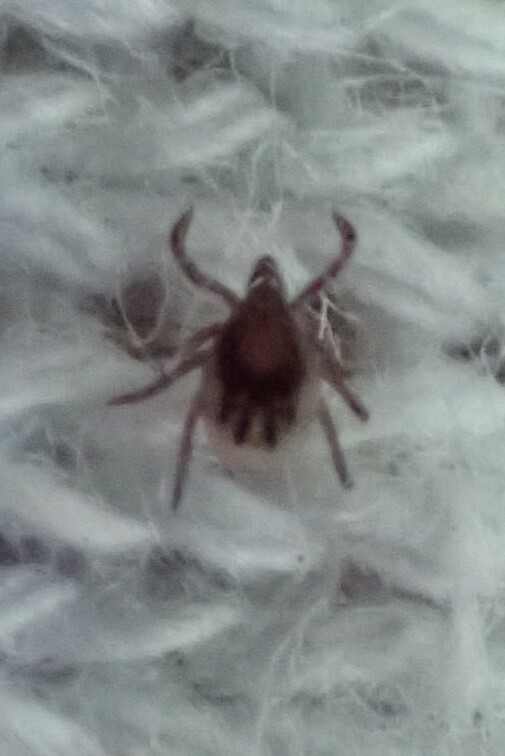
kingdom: Animalia
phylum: Arthropoda
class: Arachnida
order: Ixodida
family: Ixodidae
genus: Ixodes
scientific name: Ixodes scapularis
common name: Black legged tick
